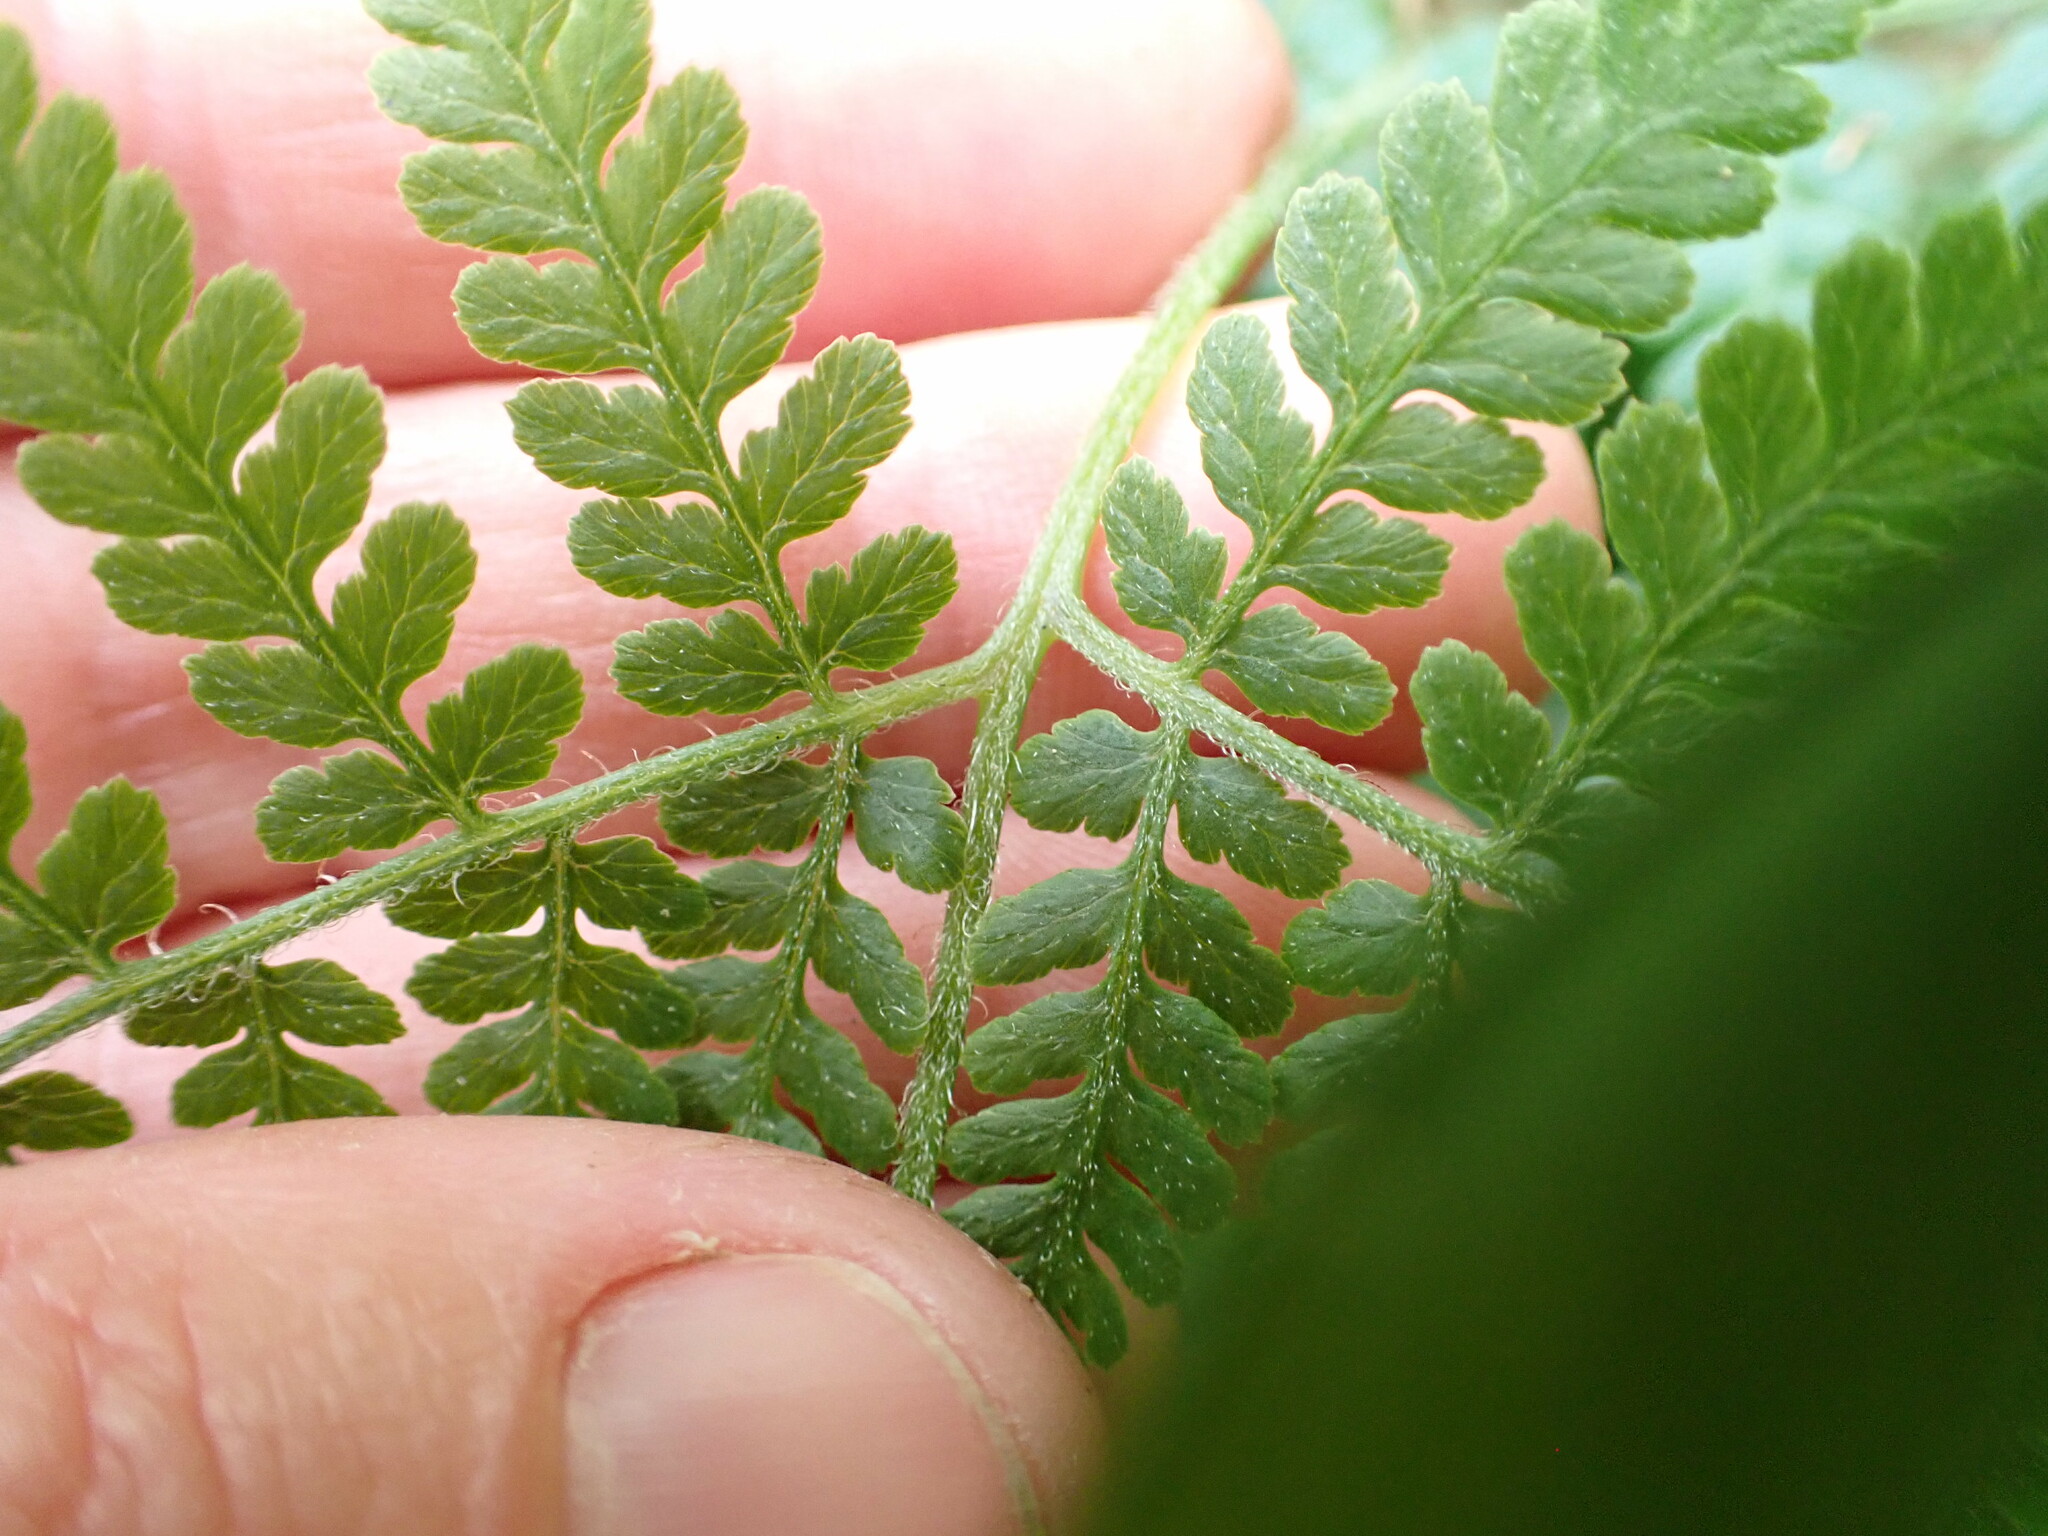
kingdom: Plantae
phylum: Tracheophyta
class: Polypodiopsida
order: Polypodiales
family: Dennstaedtiaceae
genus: Hypolepis
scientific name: Hypolepis ambigua
